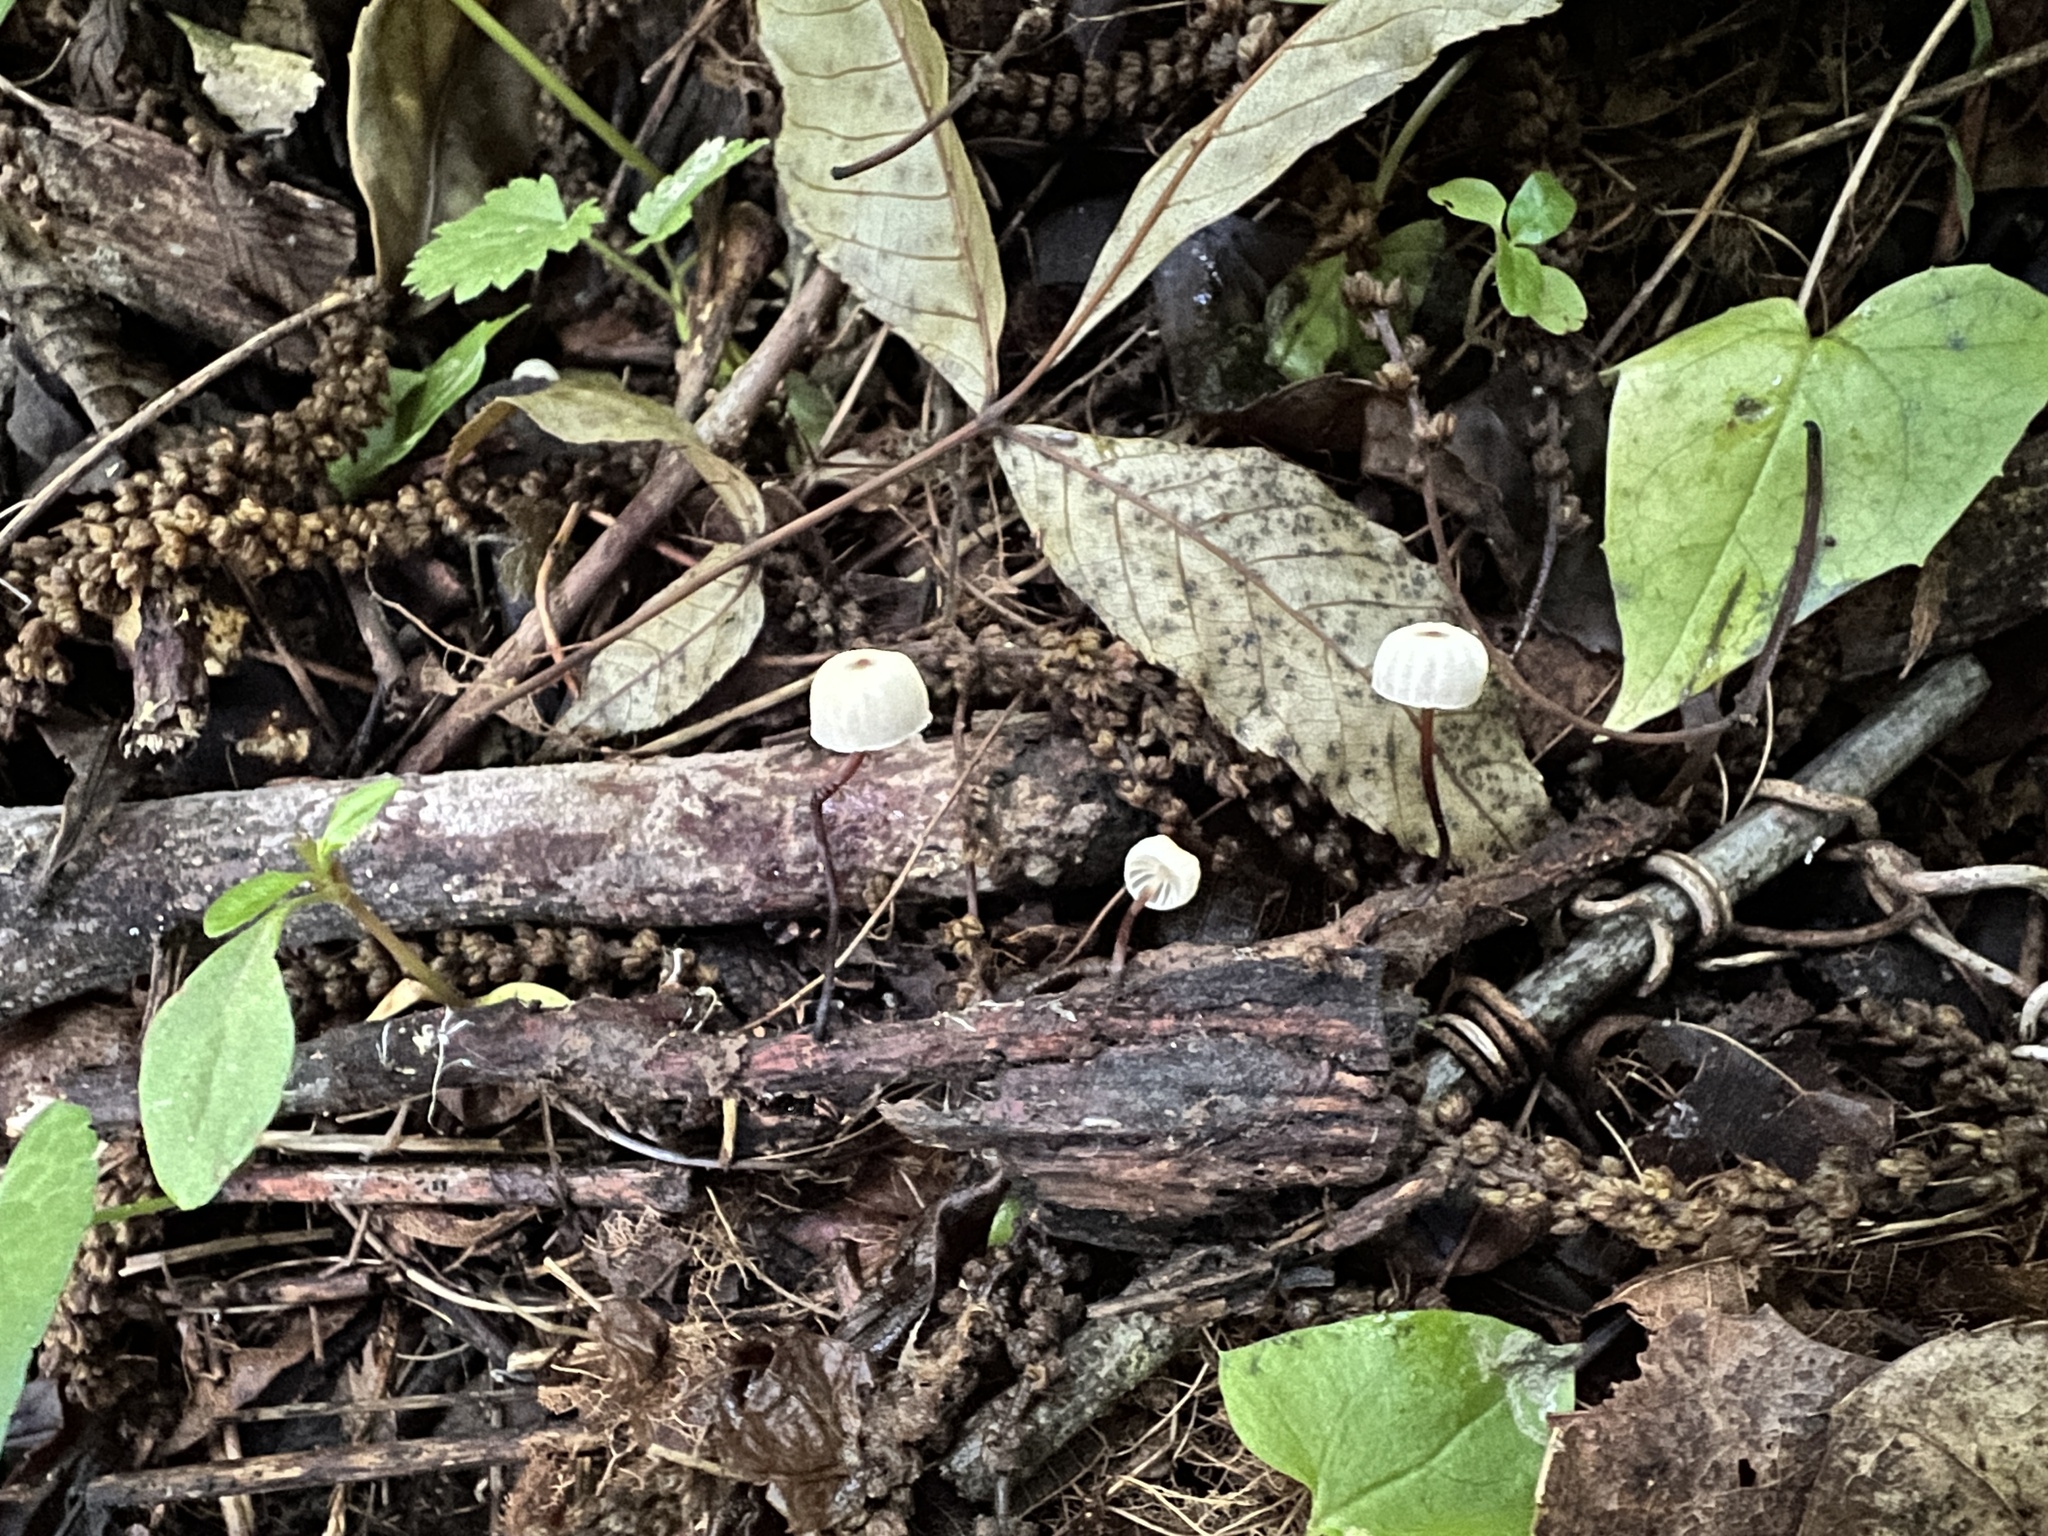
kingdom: Fungi
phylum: Basidiomycota
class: Agaricomycetes
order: Agaricales
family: Marasmiaceae
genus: Marasmius
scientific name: Marasmius capillaris
